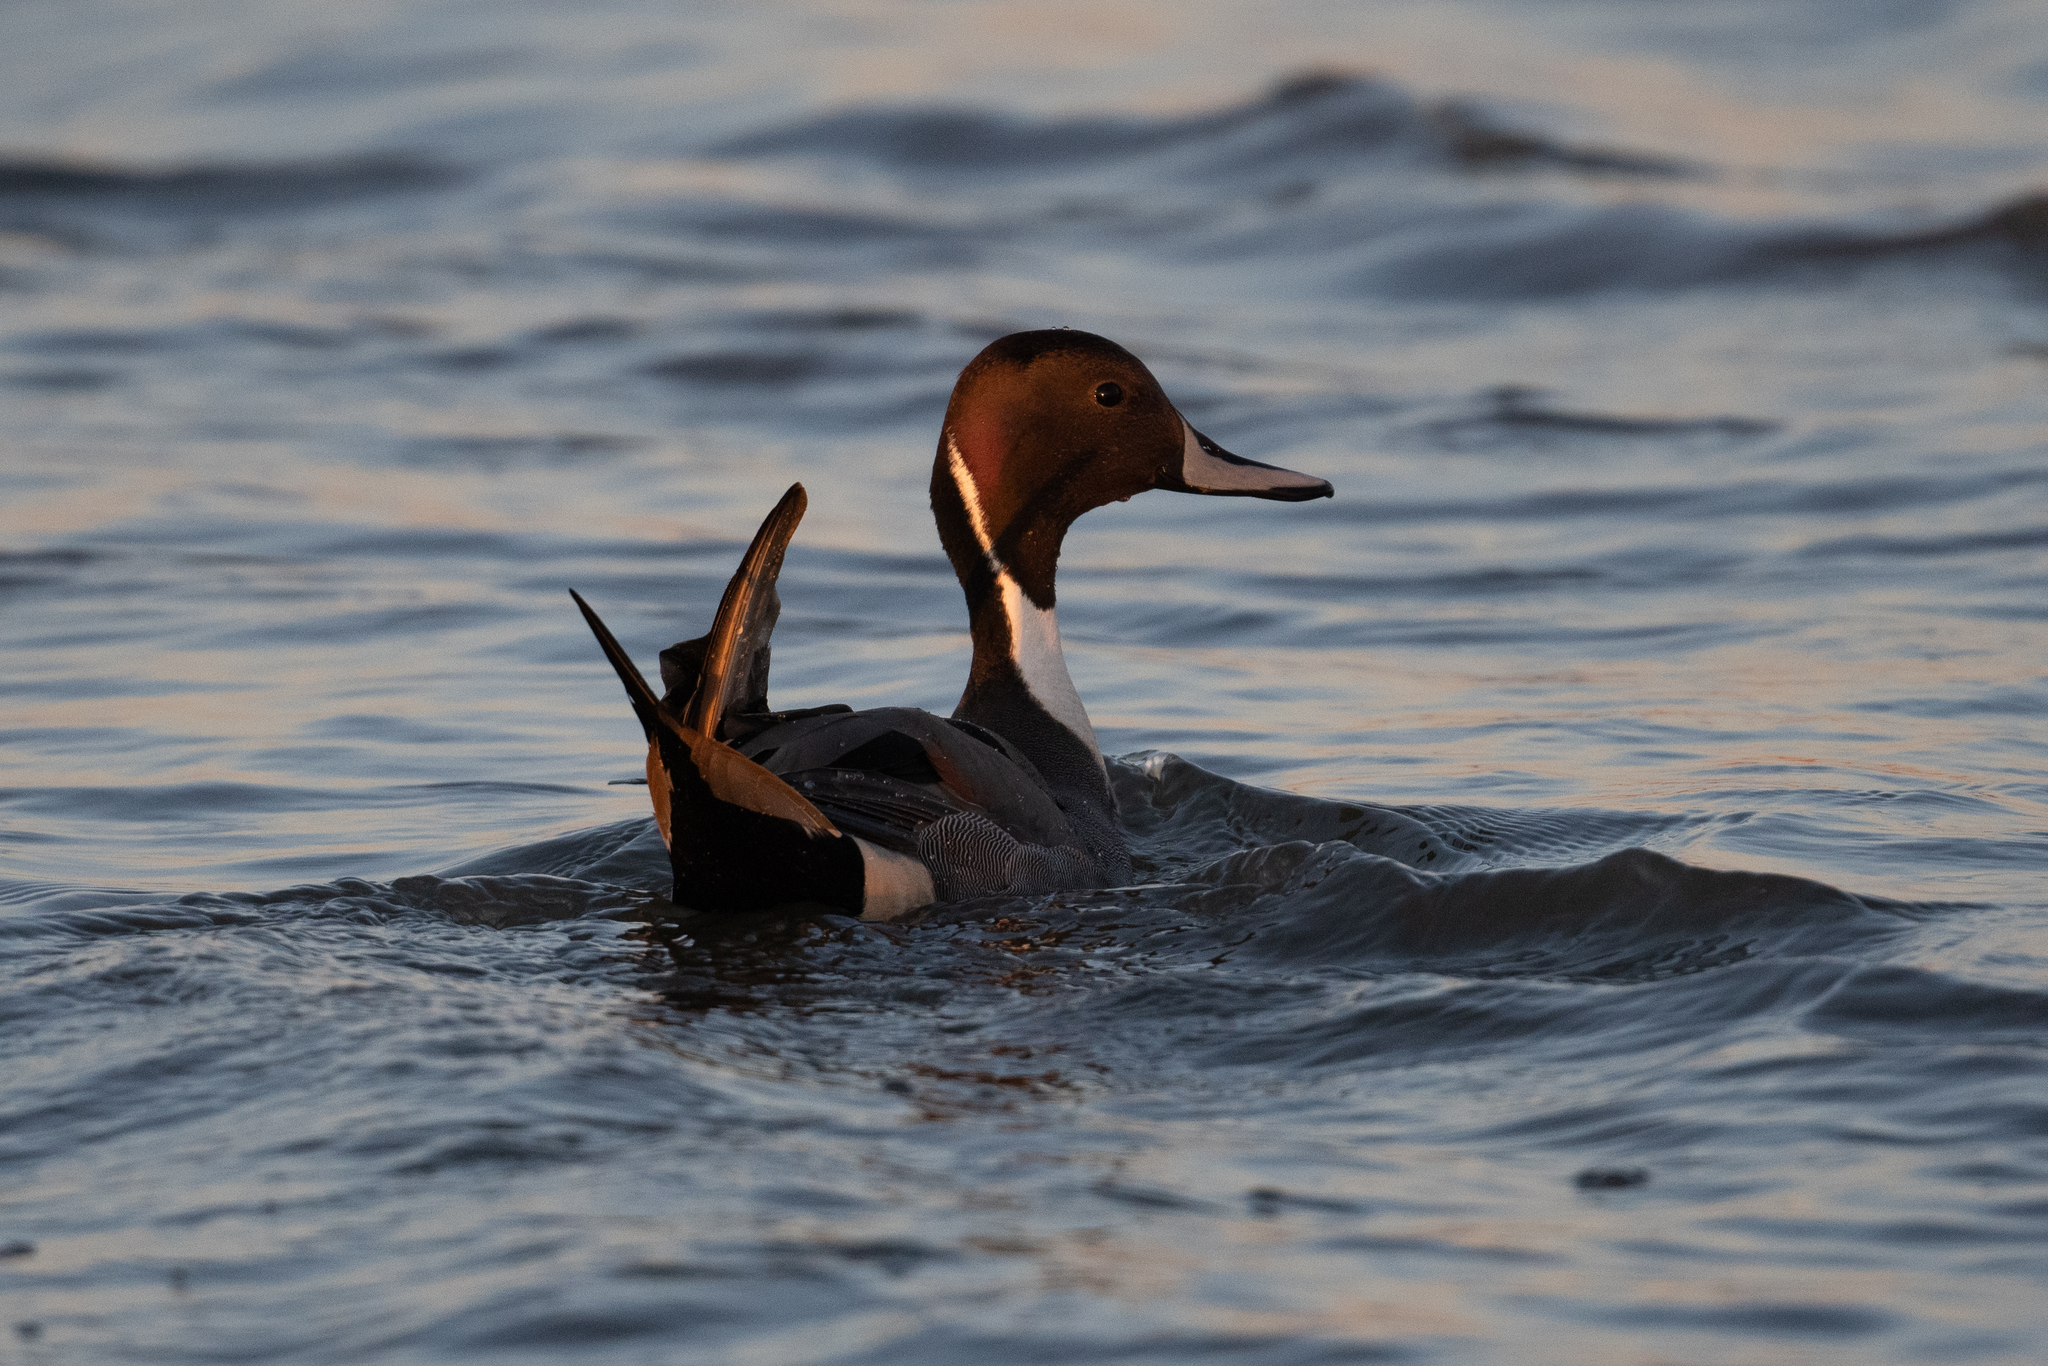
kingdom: Animalia
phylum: Chordata
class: Aves
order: Anseriformes
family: Anatidae
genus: Anas
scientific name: Anas acuta
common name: Northern pintail
